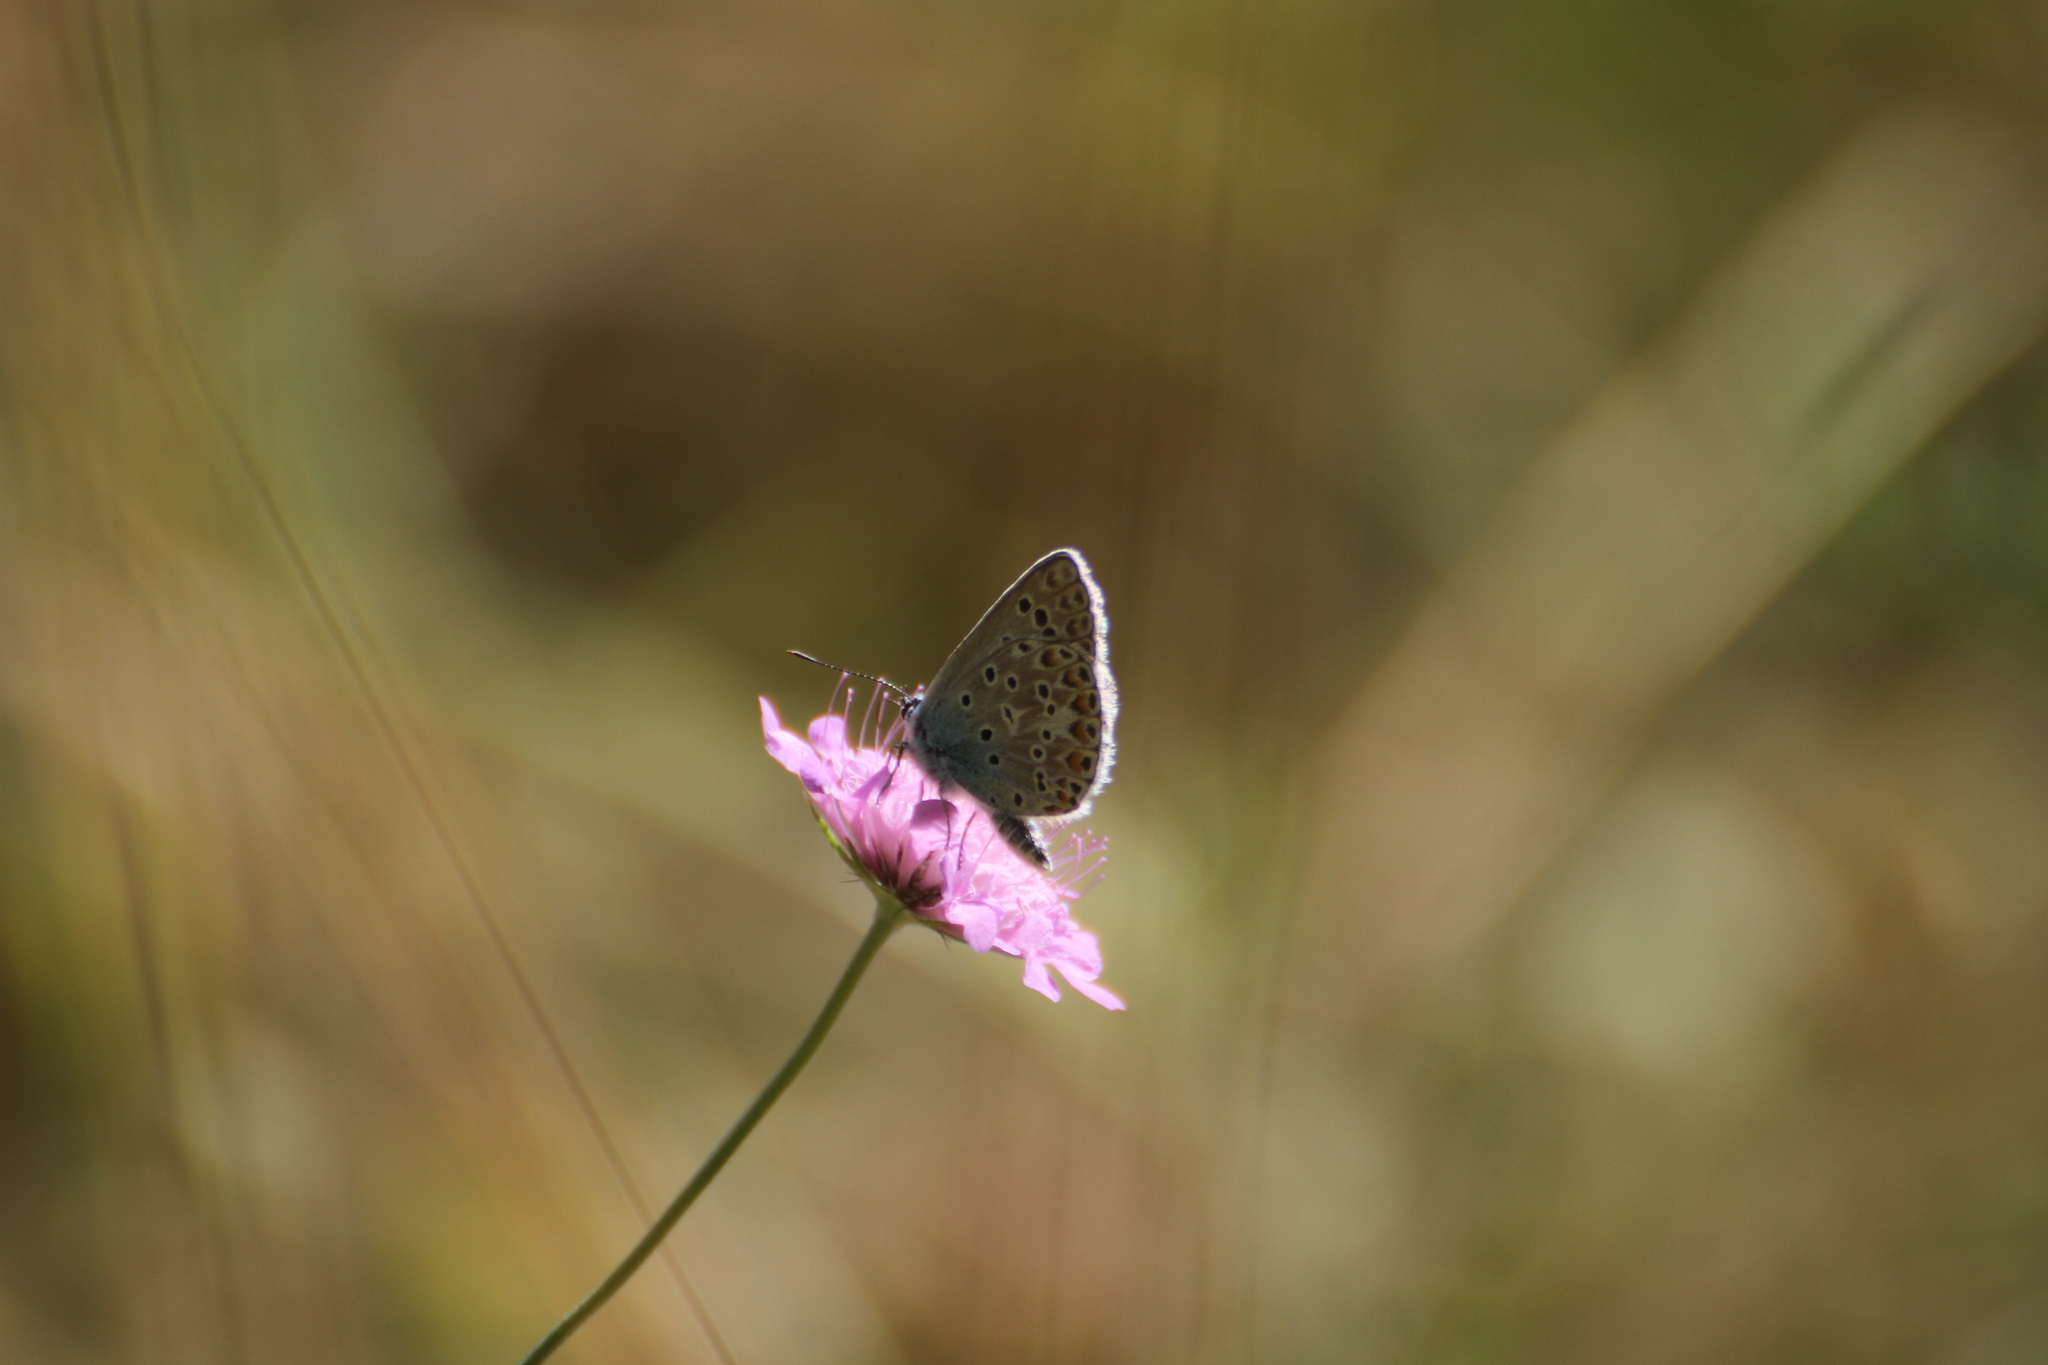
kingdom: Animalia
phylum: Arthropoda
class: Insecta
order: Lepidoptera
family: Lycaenidae
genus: Plebicula
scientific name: Plebicula escheri
